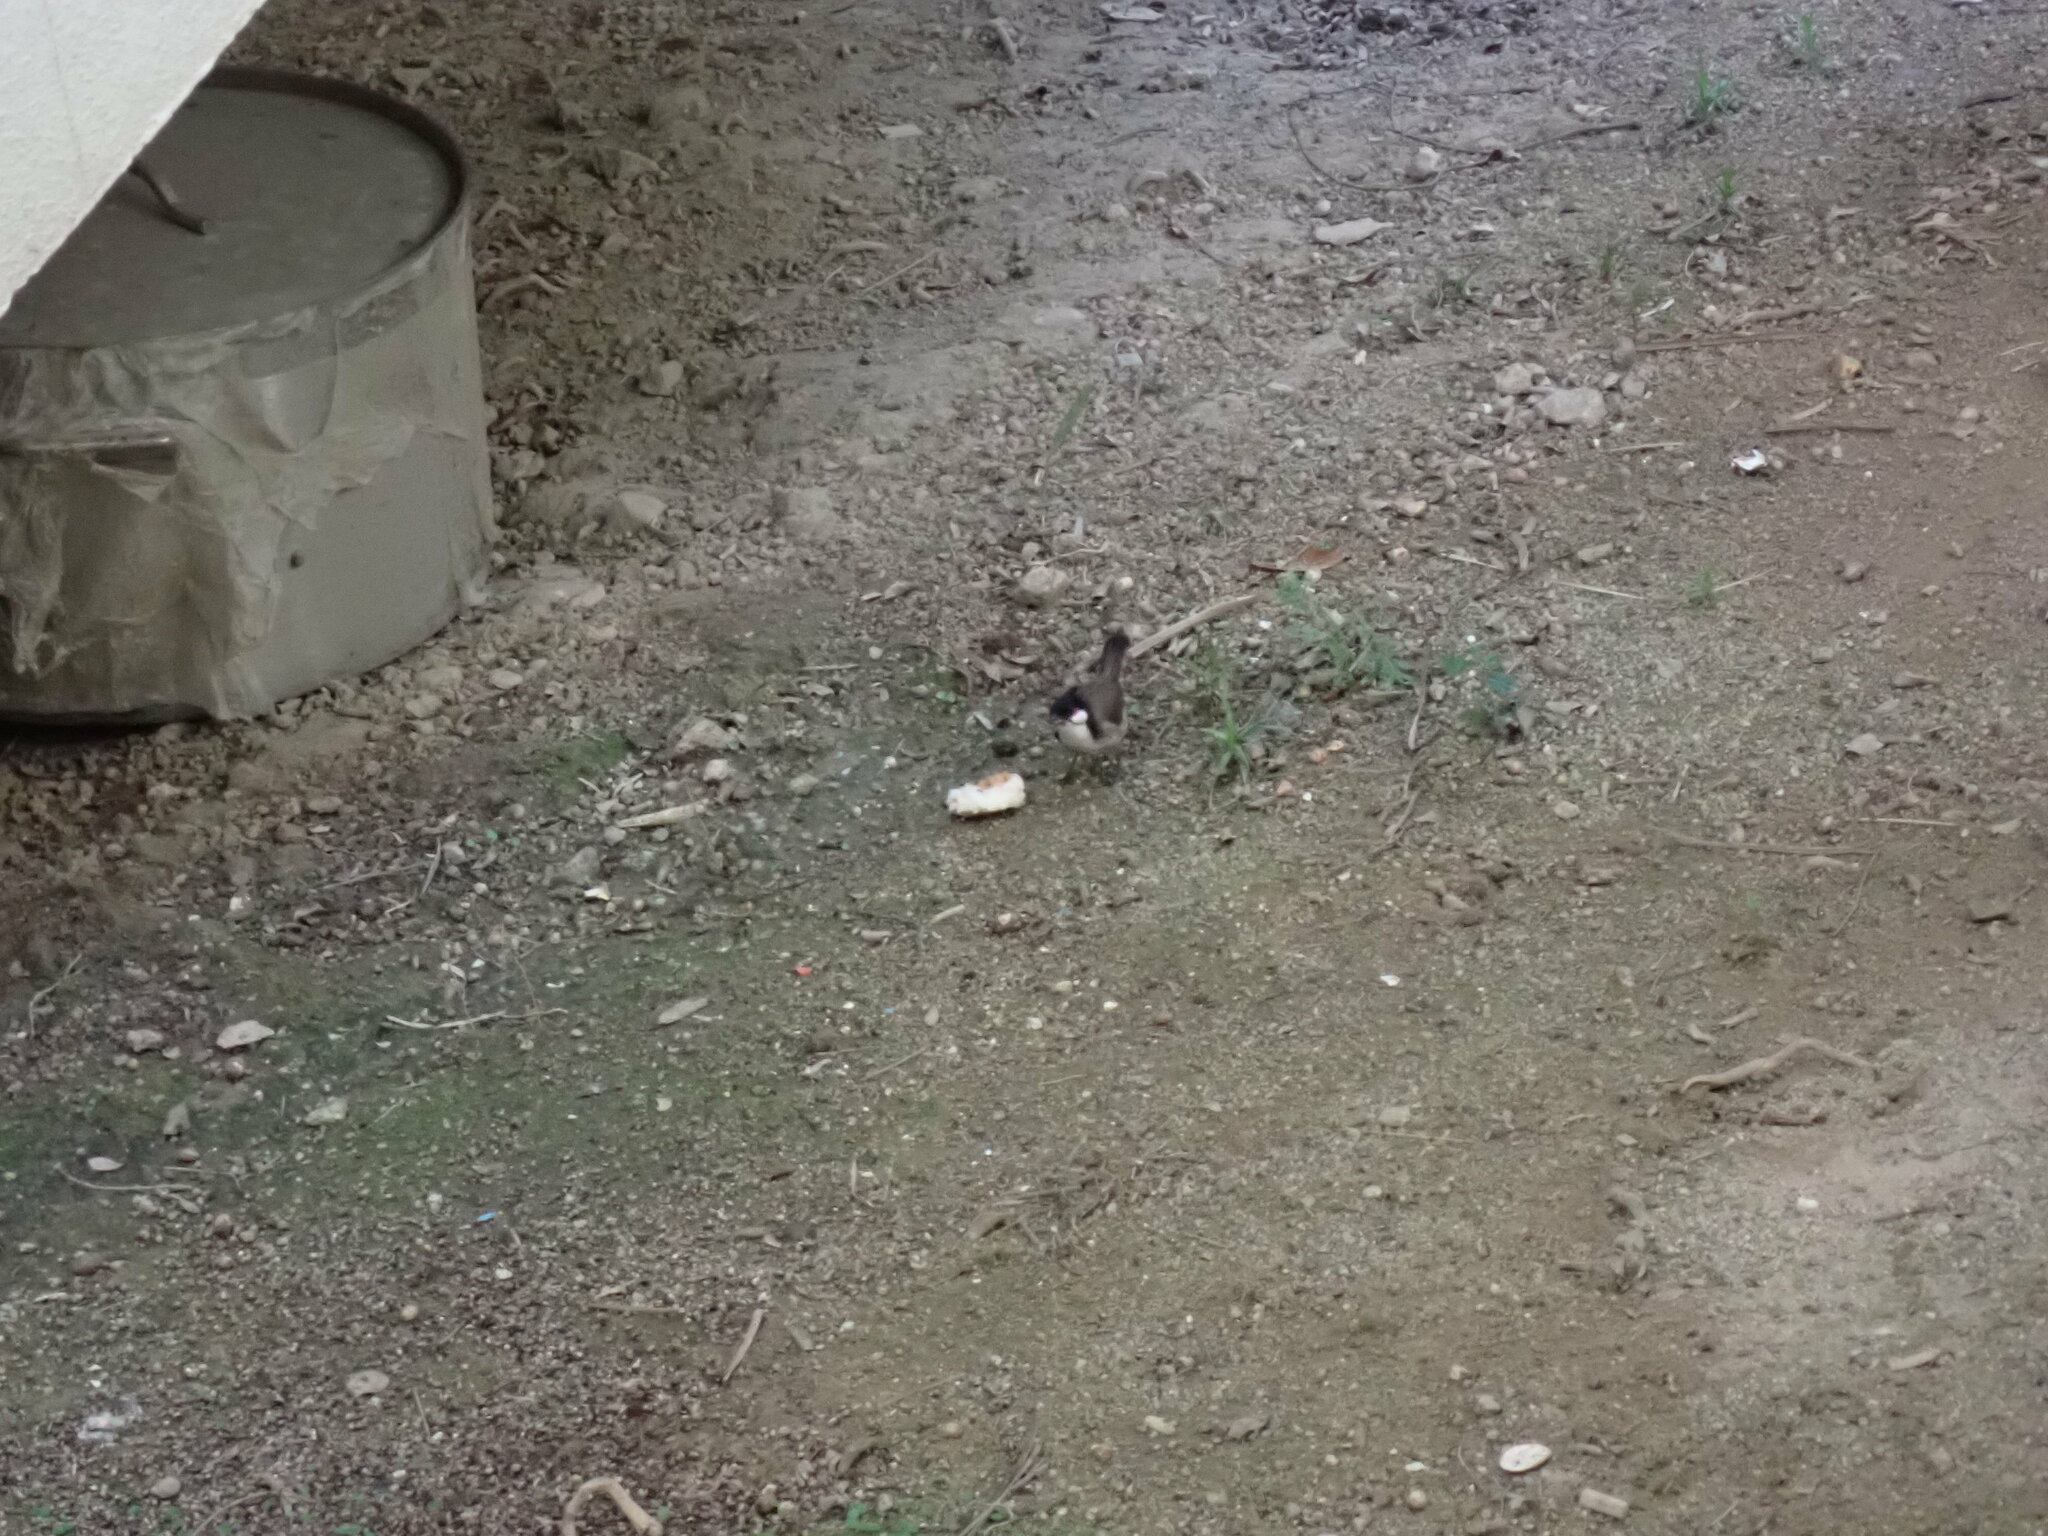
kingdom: Animalia
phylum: Chordata
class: Aves
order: Passeriformes
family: Pycnonotidae
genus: Pycnonotus
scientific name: Pycnonotus jocosus
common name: Red-whiskered bulbul
